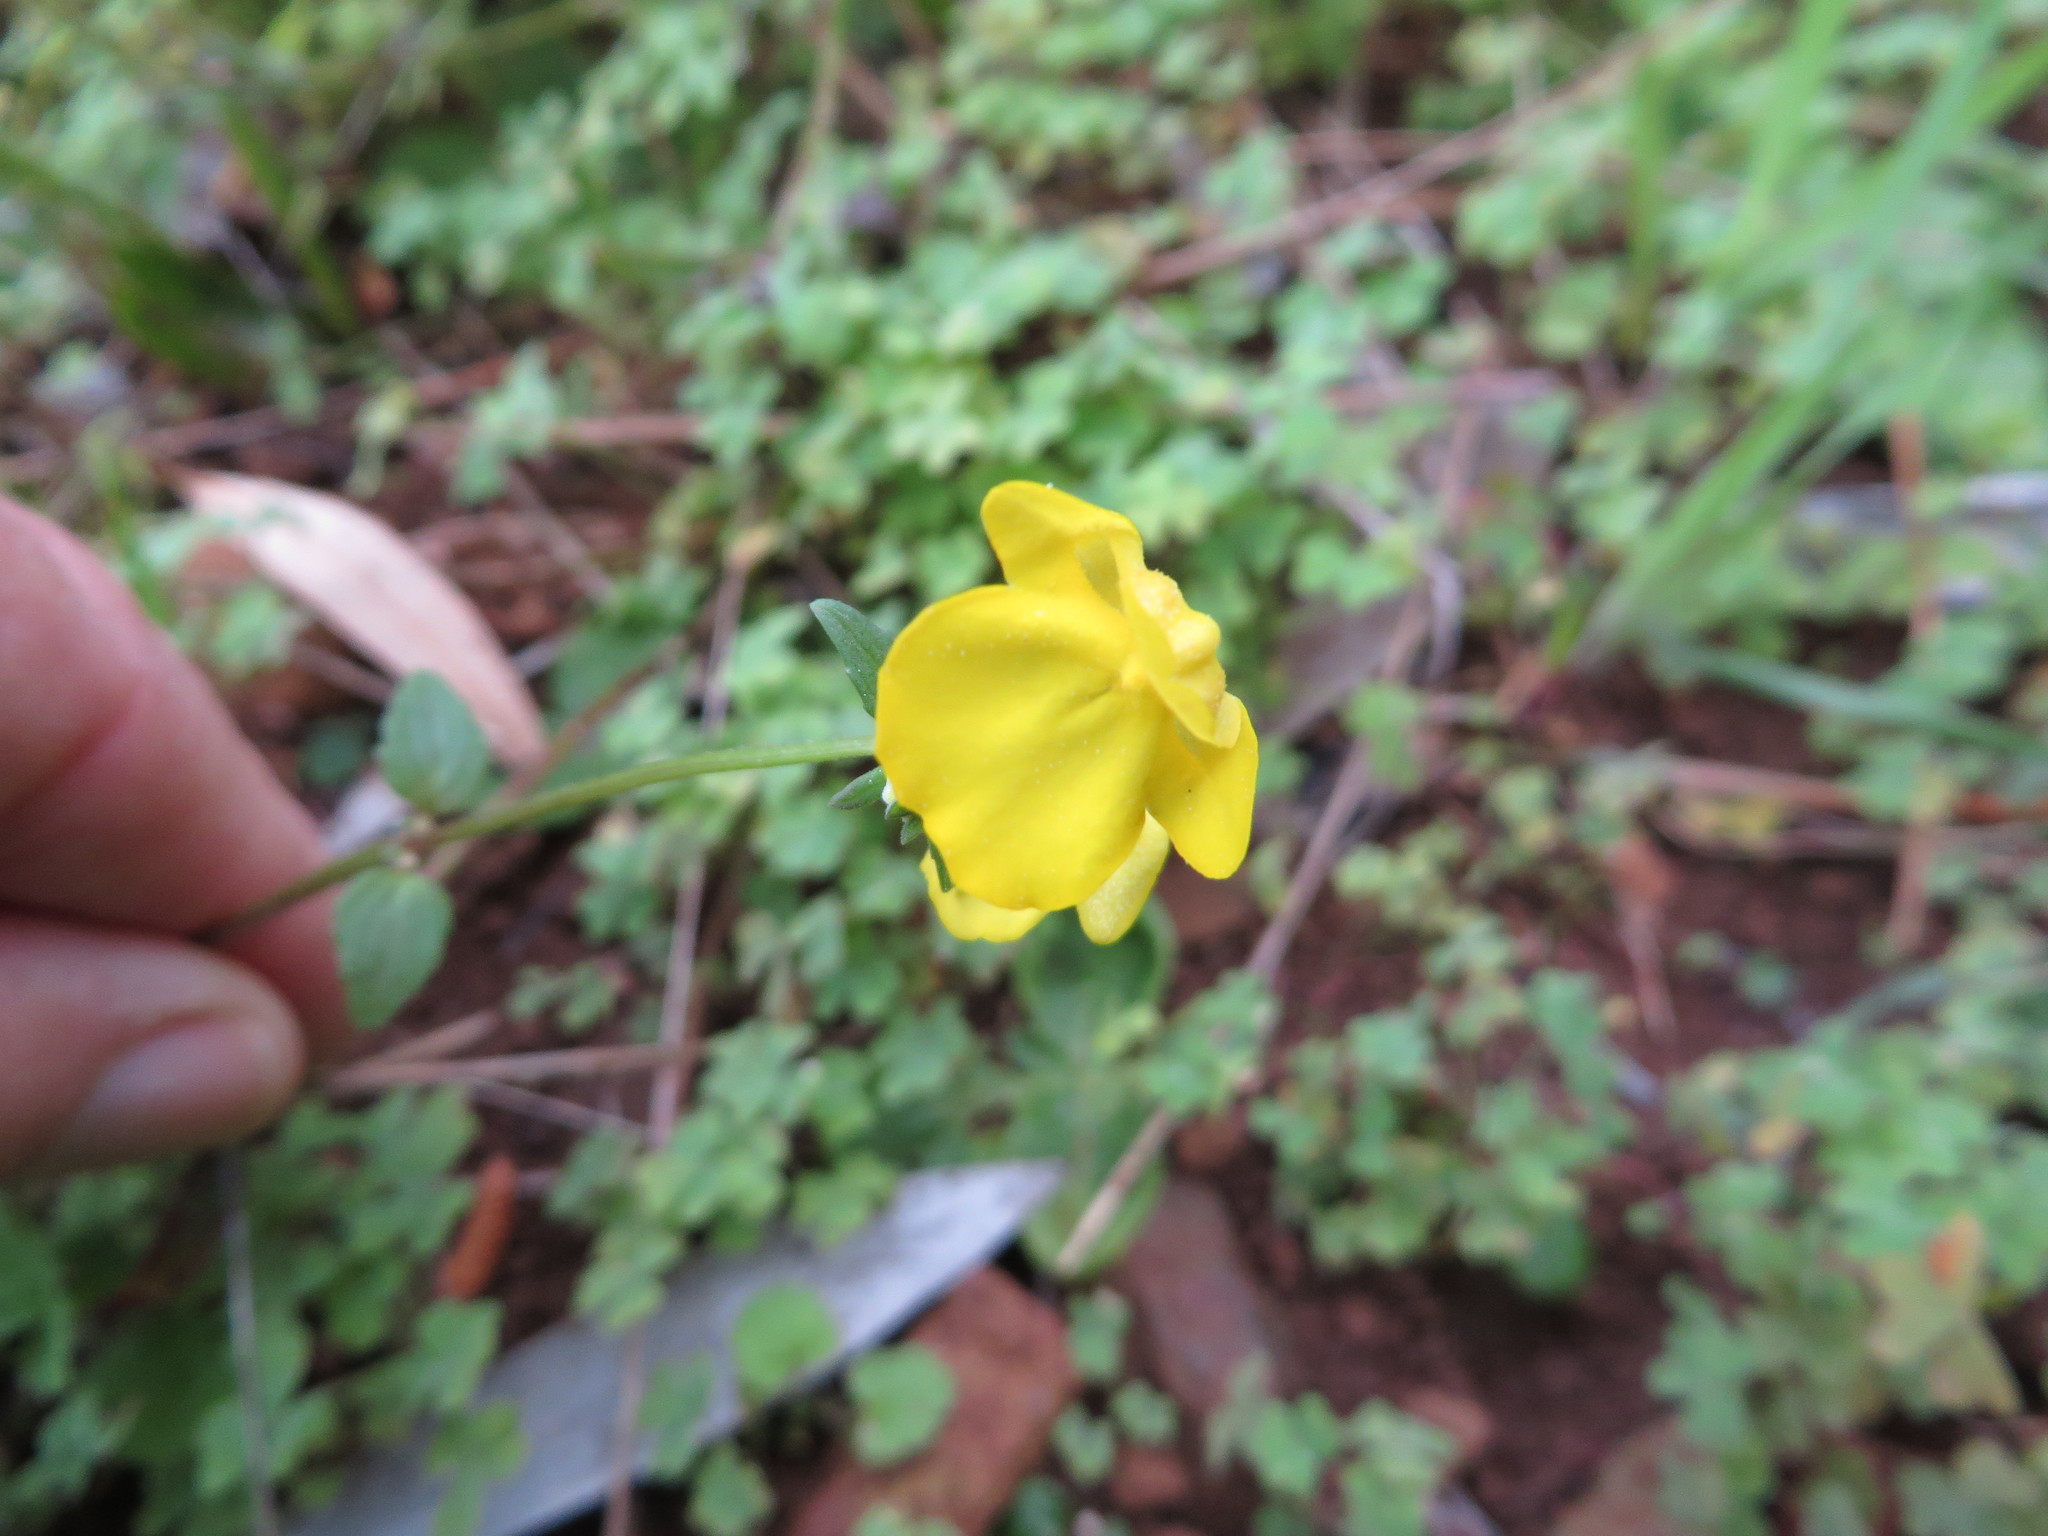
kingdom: Plantae
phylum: Tracheophyta
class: Magnoliopsida
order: Lamiales
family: Scrophulariaceae
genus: Hemimeris
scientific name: Hemimeris racemosa
